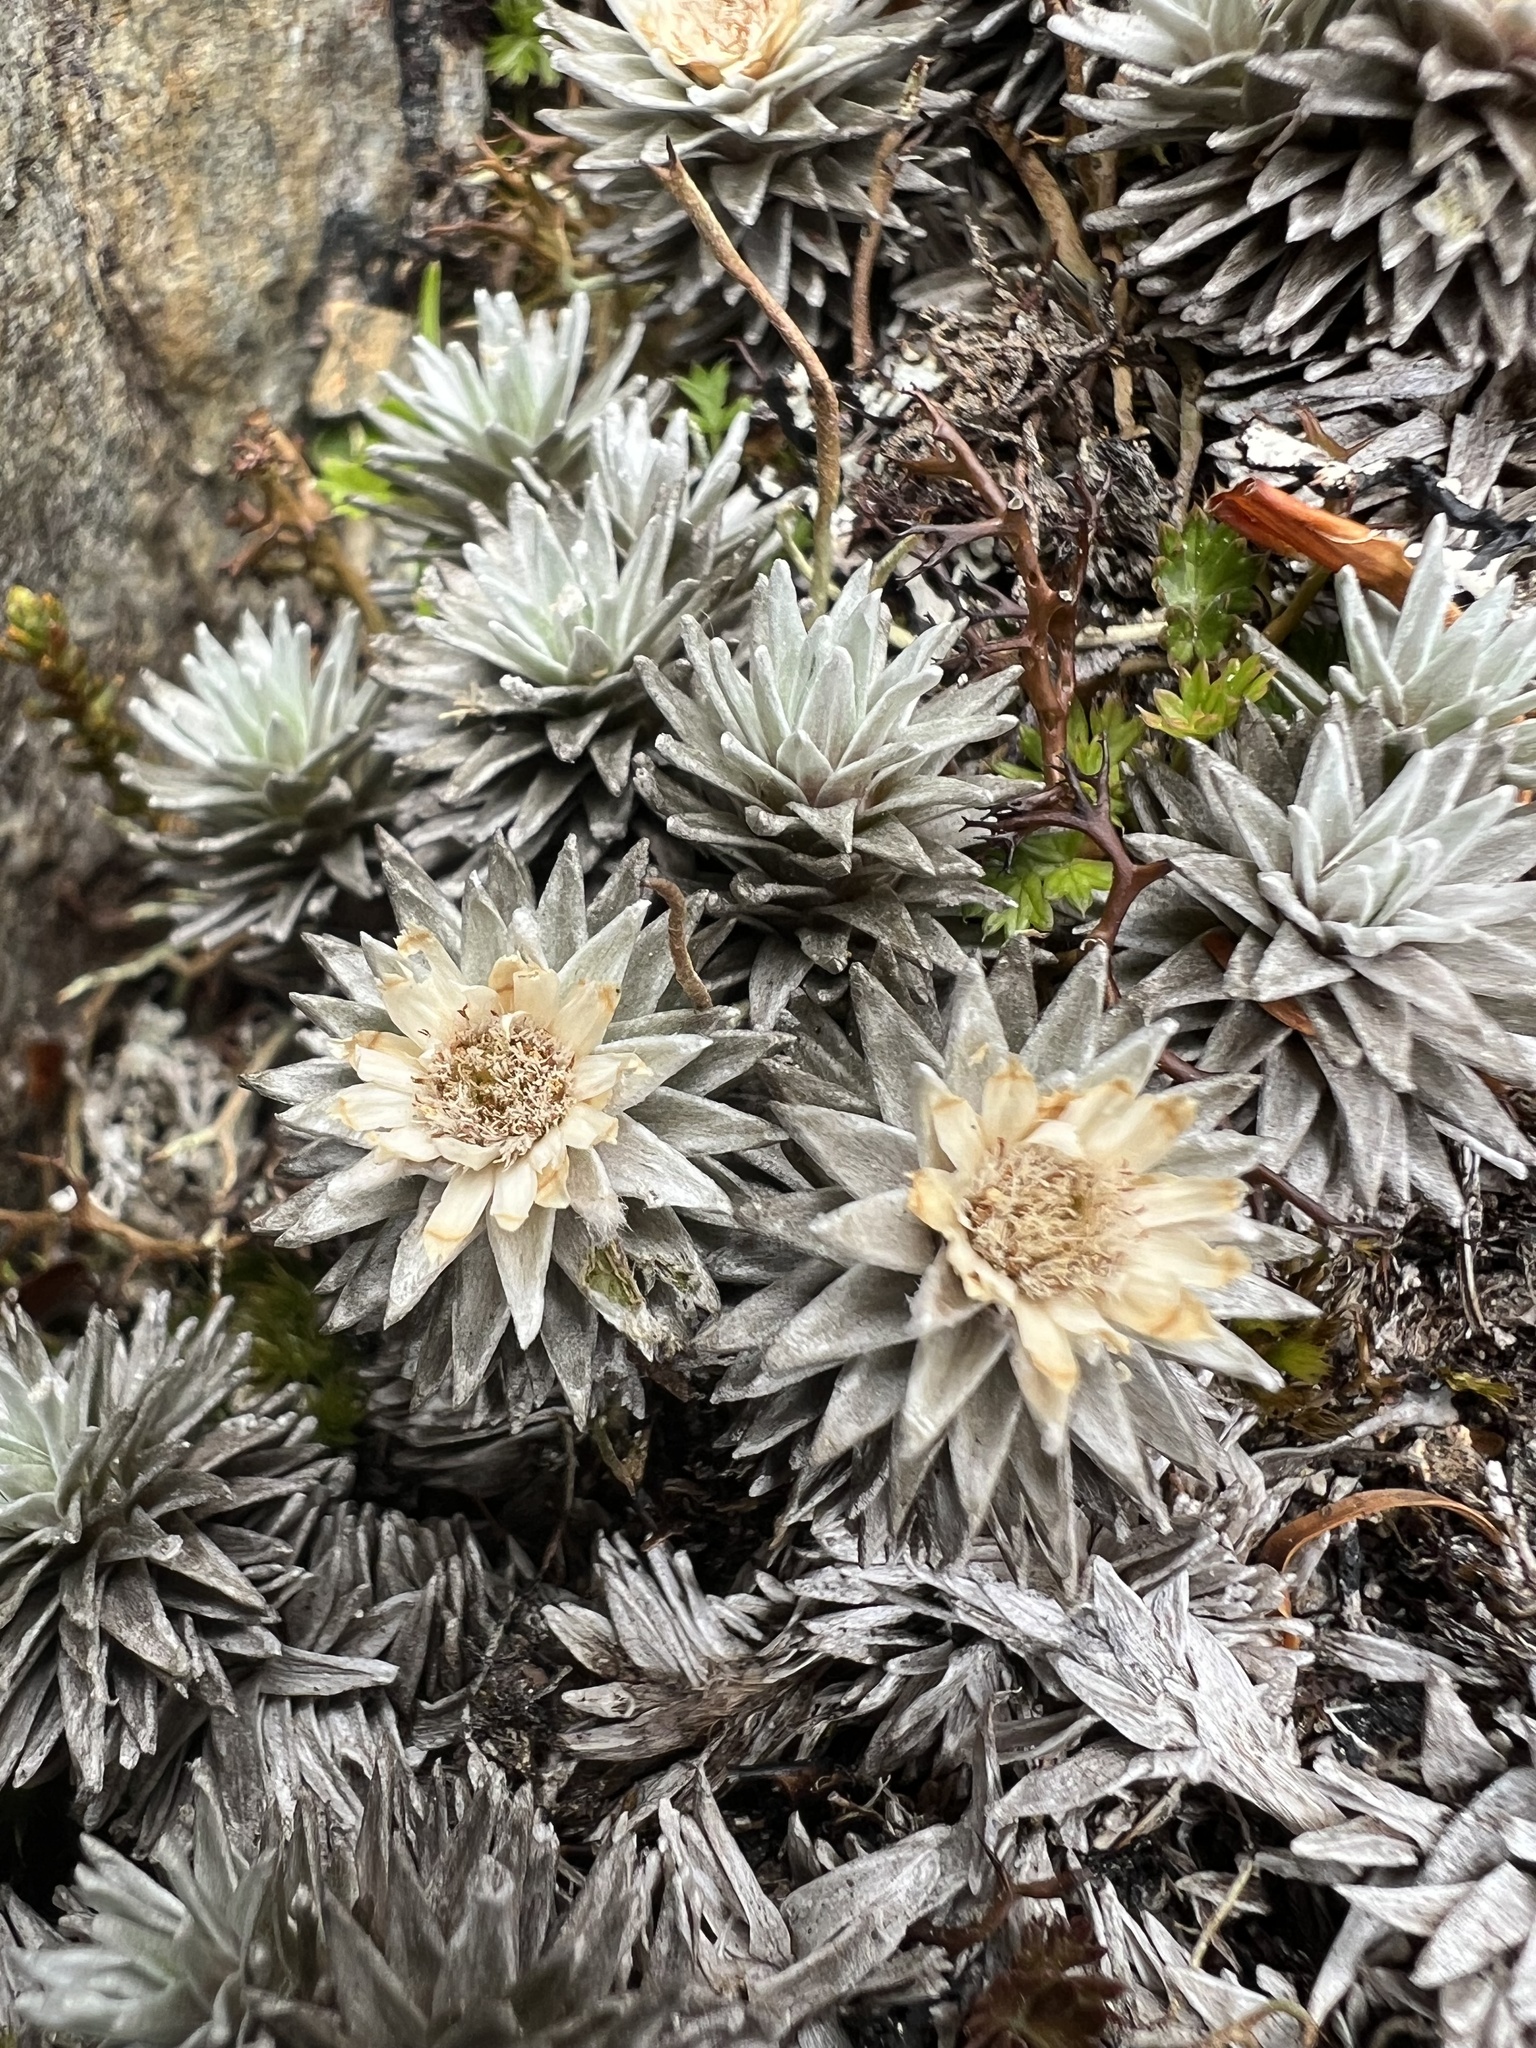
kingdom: Plantae
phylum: Tracheophyta
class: Magnoliopsida
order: Asterales
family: Asteraceae
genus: Raoulia
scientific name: Raoulia grandiflora
